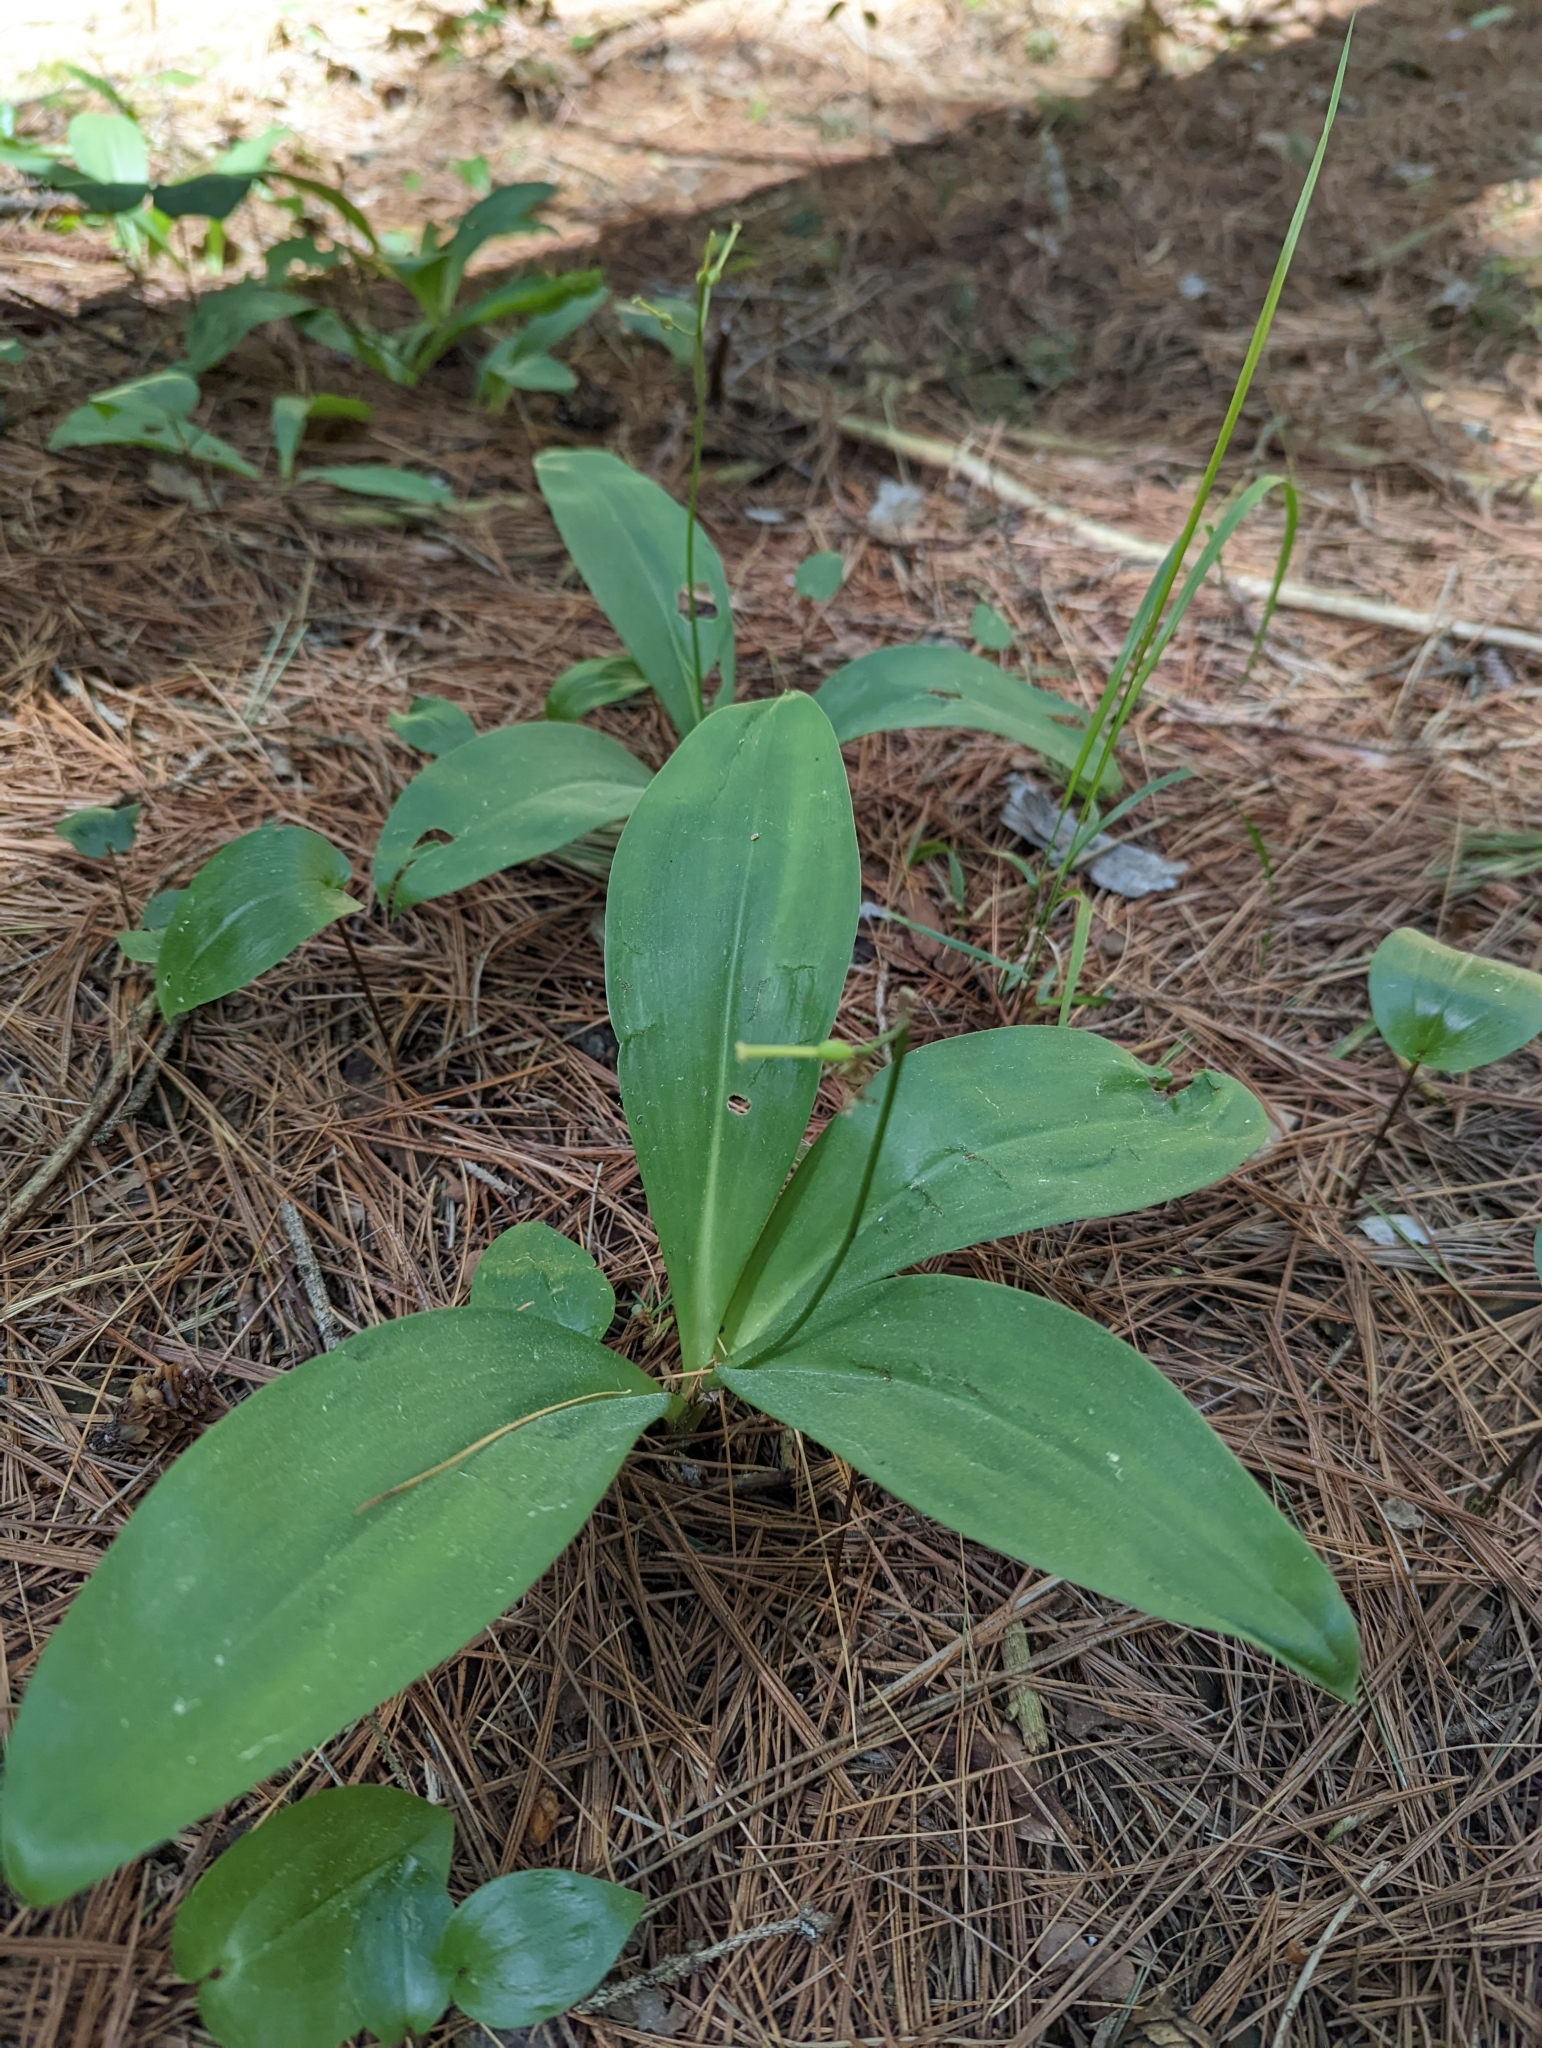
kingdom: Plantae
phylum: Tracheophyta
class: Liliopsida
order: Liliales
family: Liliaceae
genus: Clintonia
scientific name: Clintonia borealis
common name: Yellow clintonia
